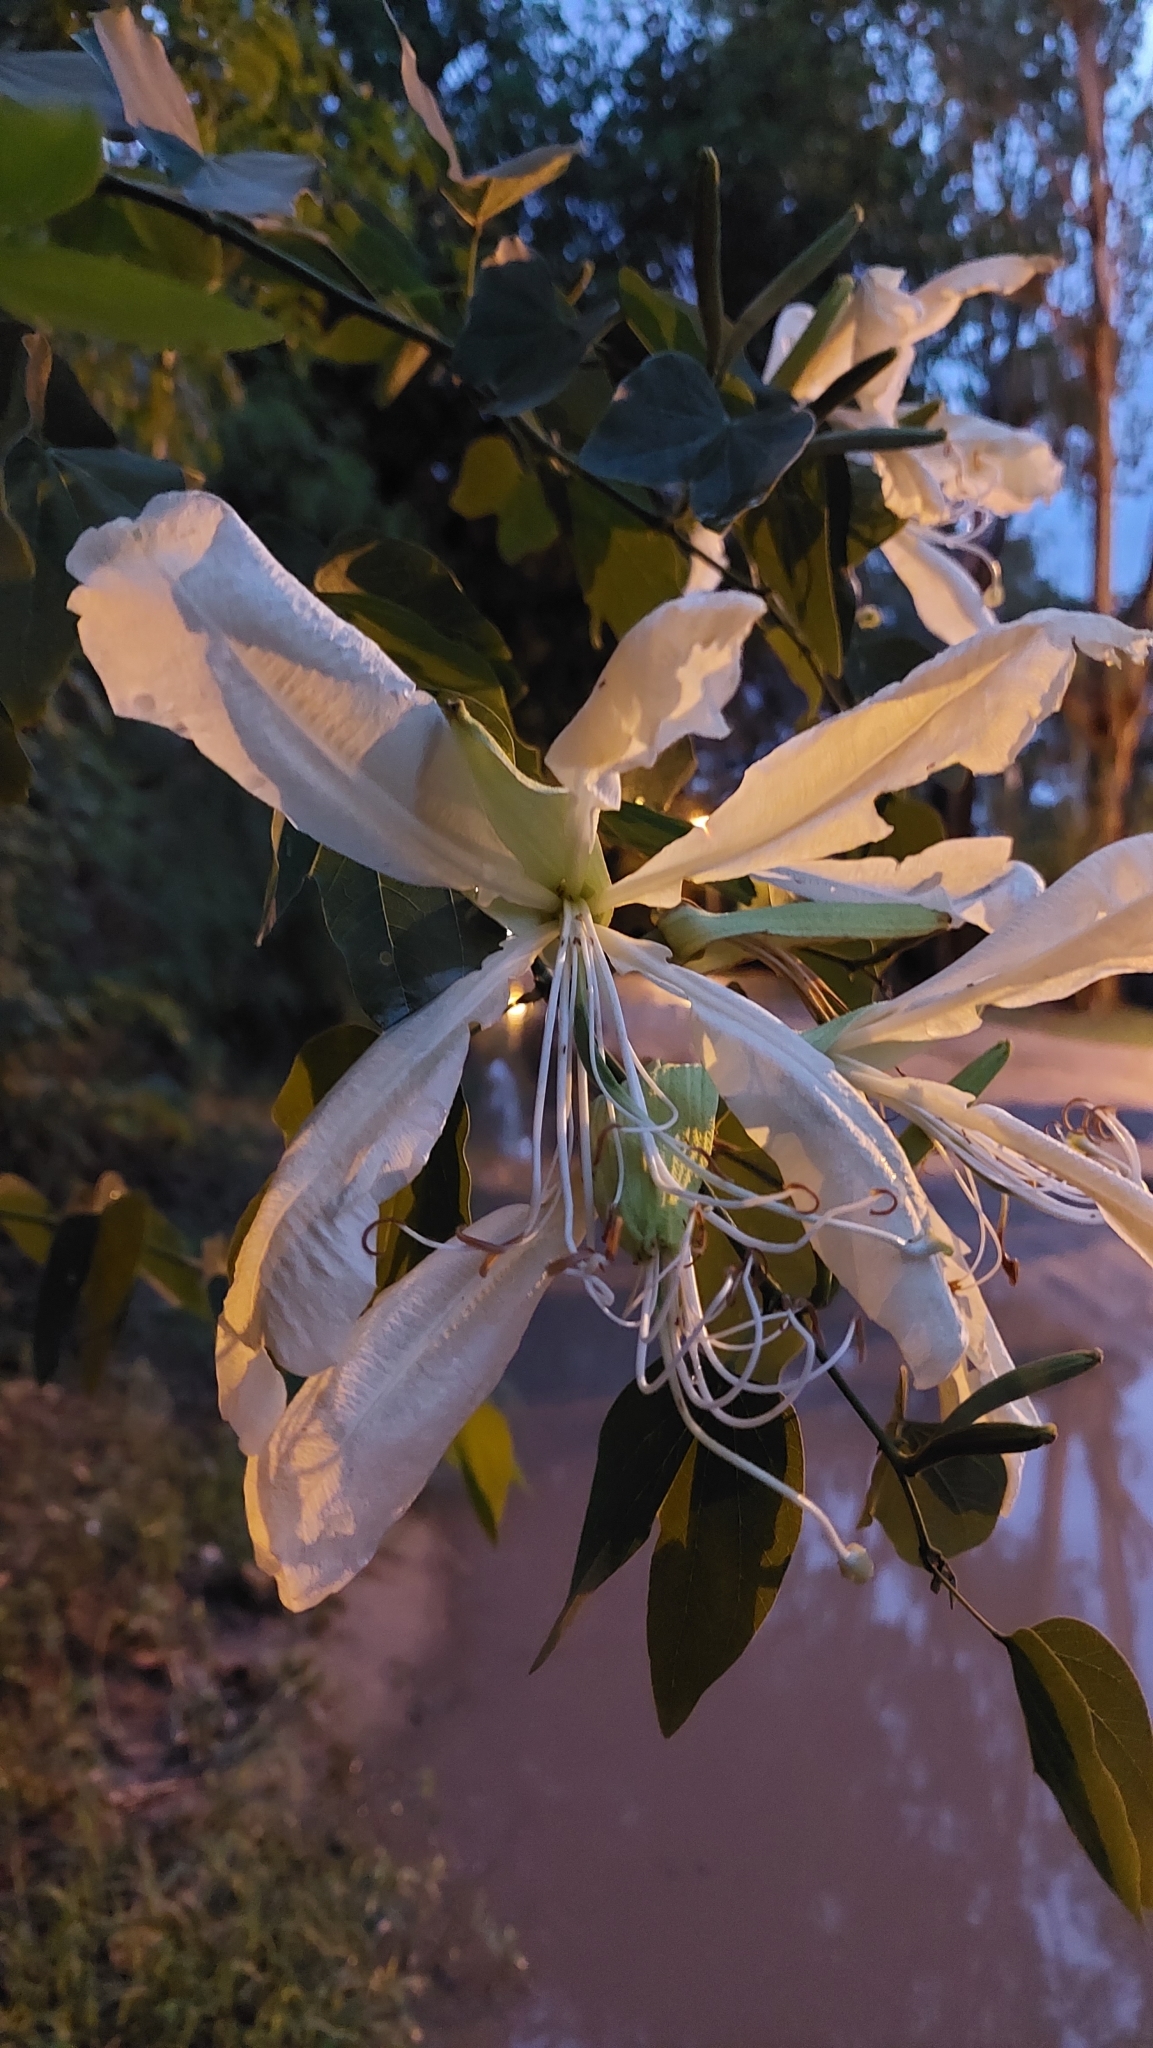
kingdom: Plantae
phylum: Tracheophyta
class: Magnoliopsida
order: Fabales
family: Fabaceae
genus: Bauhinia
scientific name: Bauhinia forficata
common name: Orchid tree
